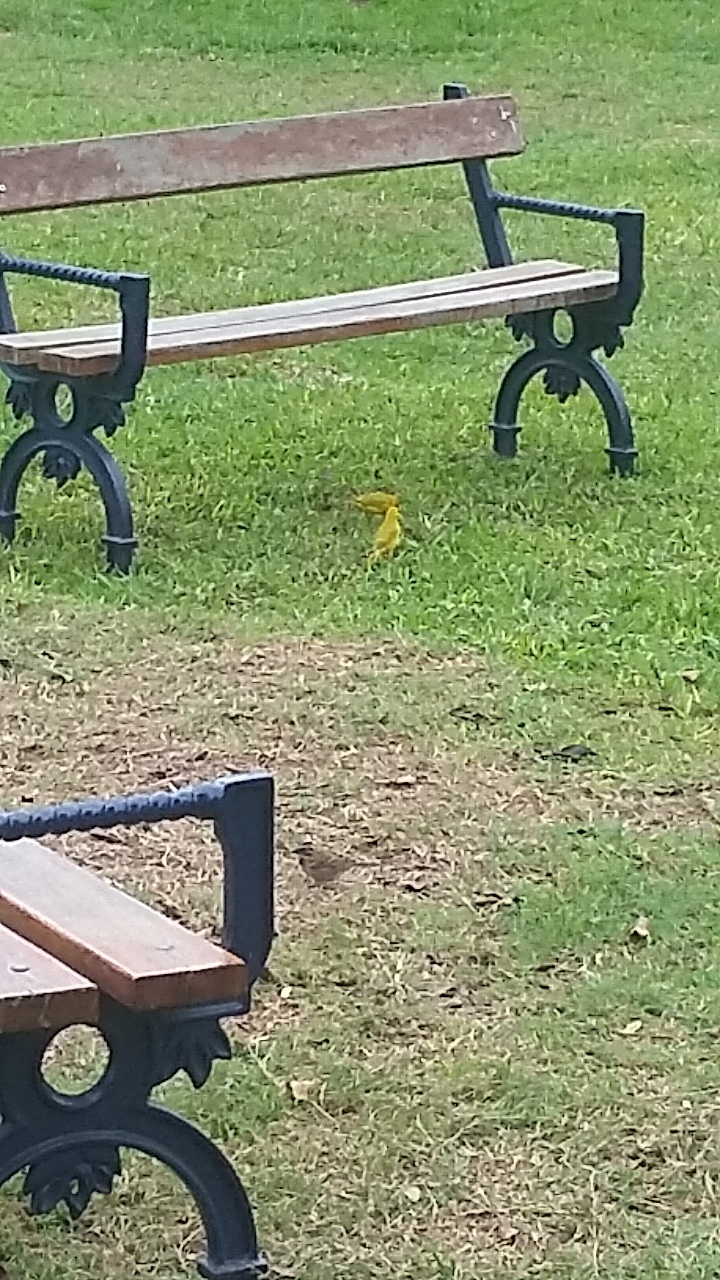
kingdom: Animalia
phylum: Chordata
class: Aves
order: Passeriformes
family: Thraupidae
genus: Sicalis
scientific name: Sicalis flaveola
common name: Saffron finch
